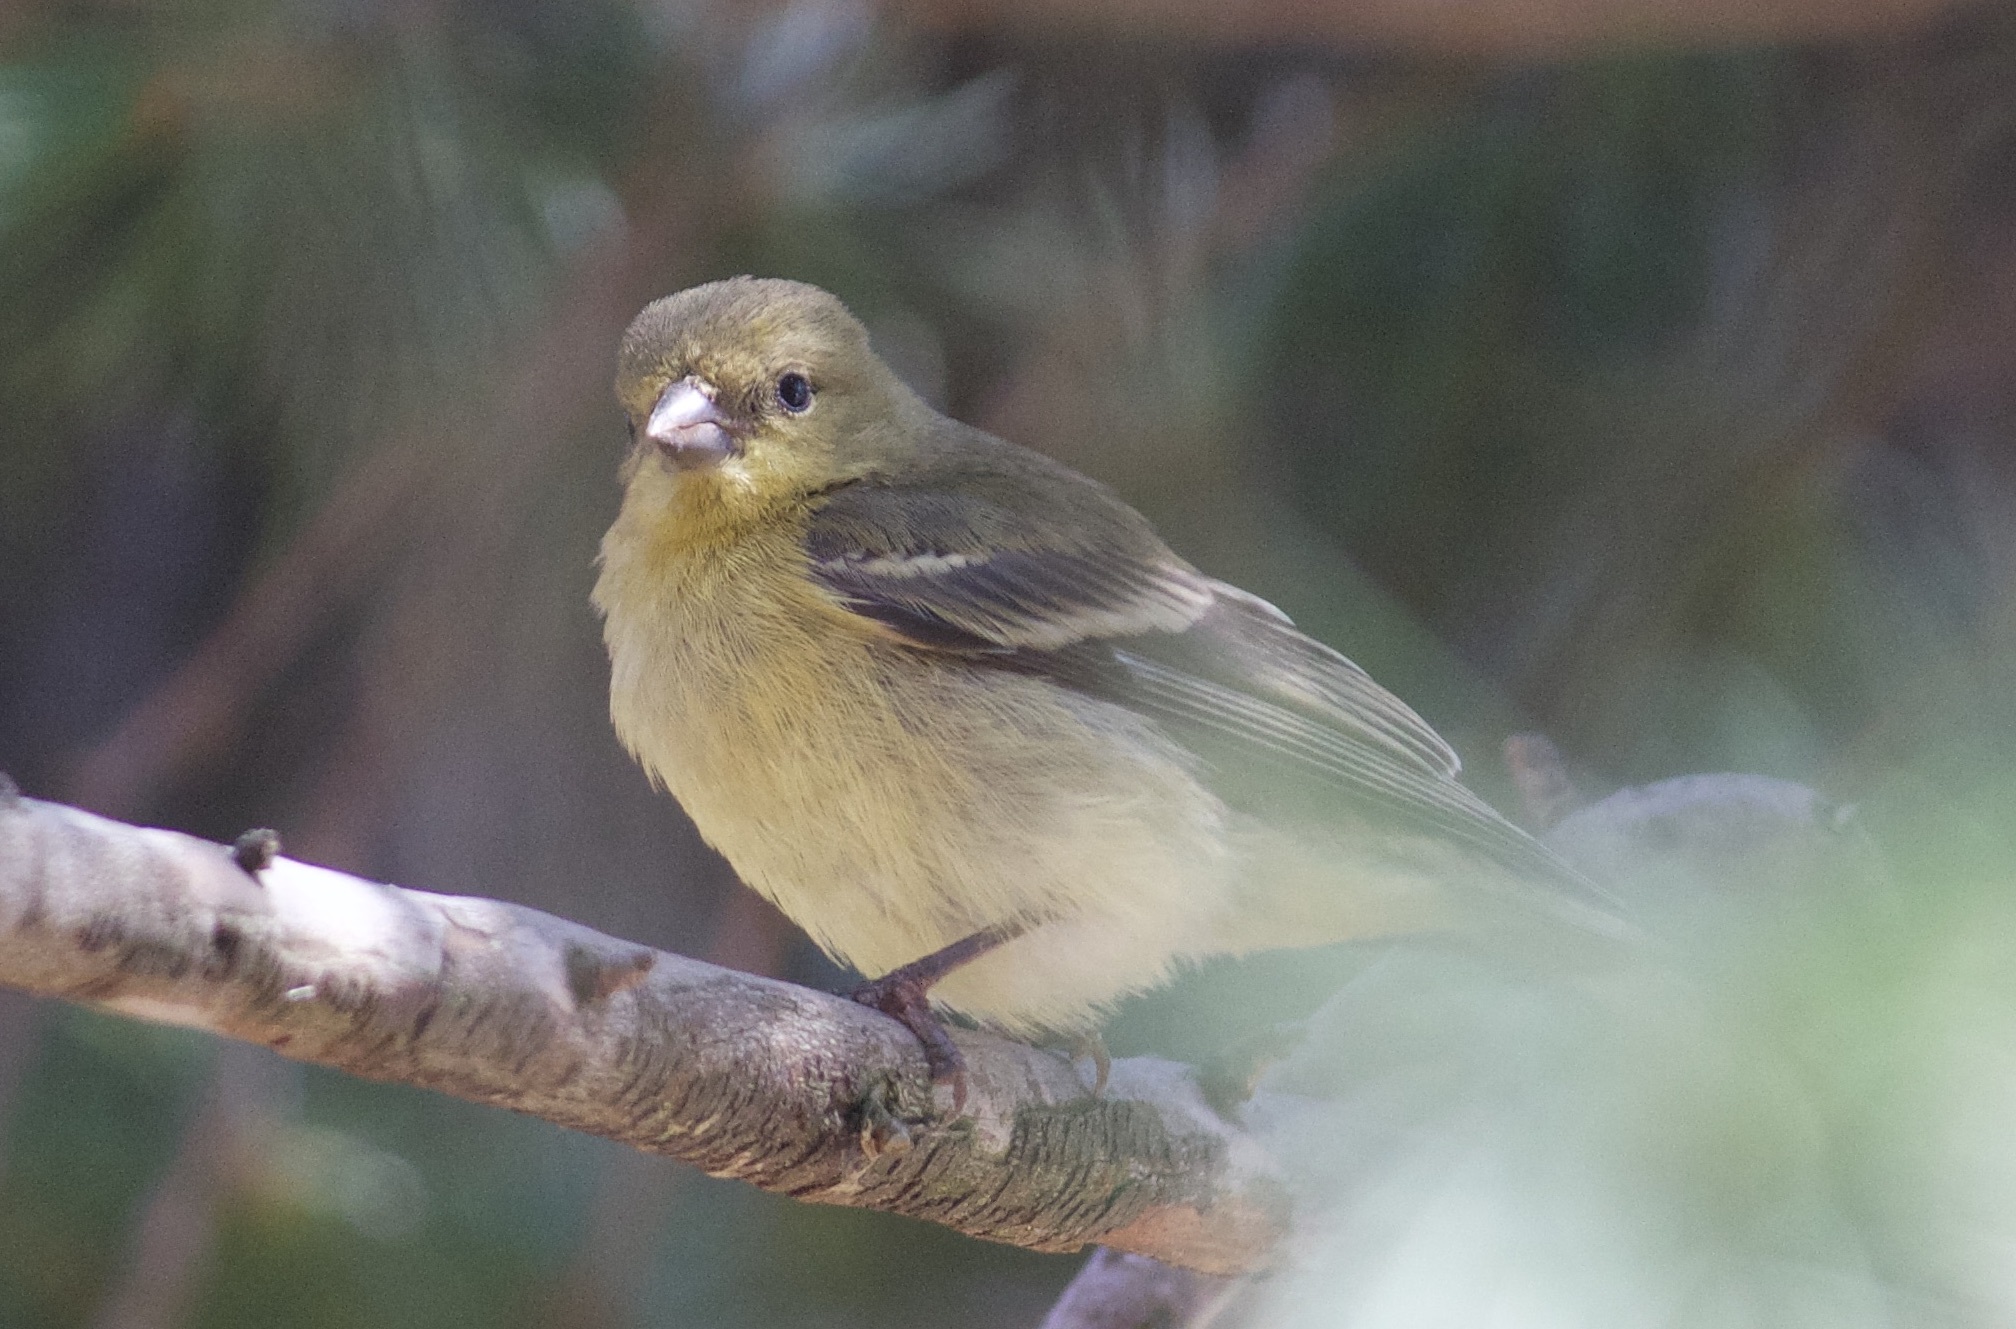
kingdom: Animalia
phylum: Chordata
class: Aves
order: Passeriformes
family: Fringillidae
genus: Spinus
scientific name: Spinus psaltria
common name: Lesser goldfinch
